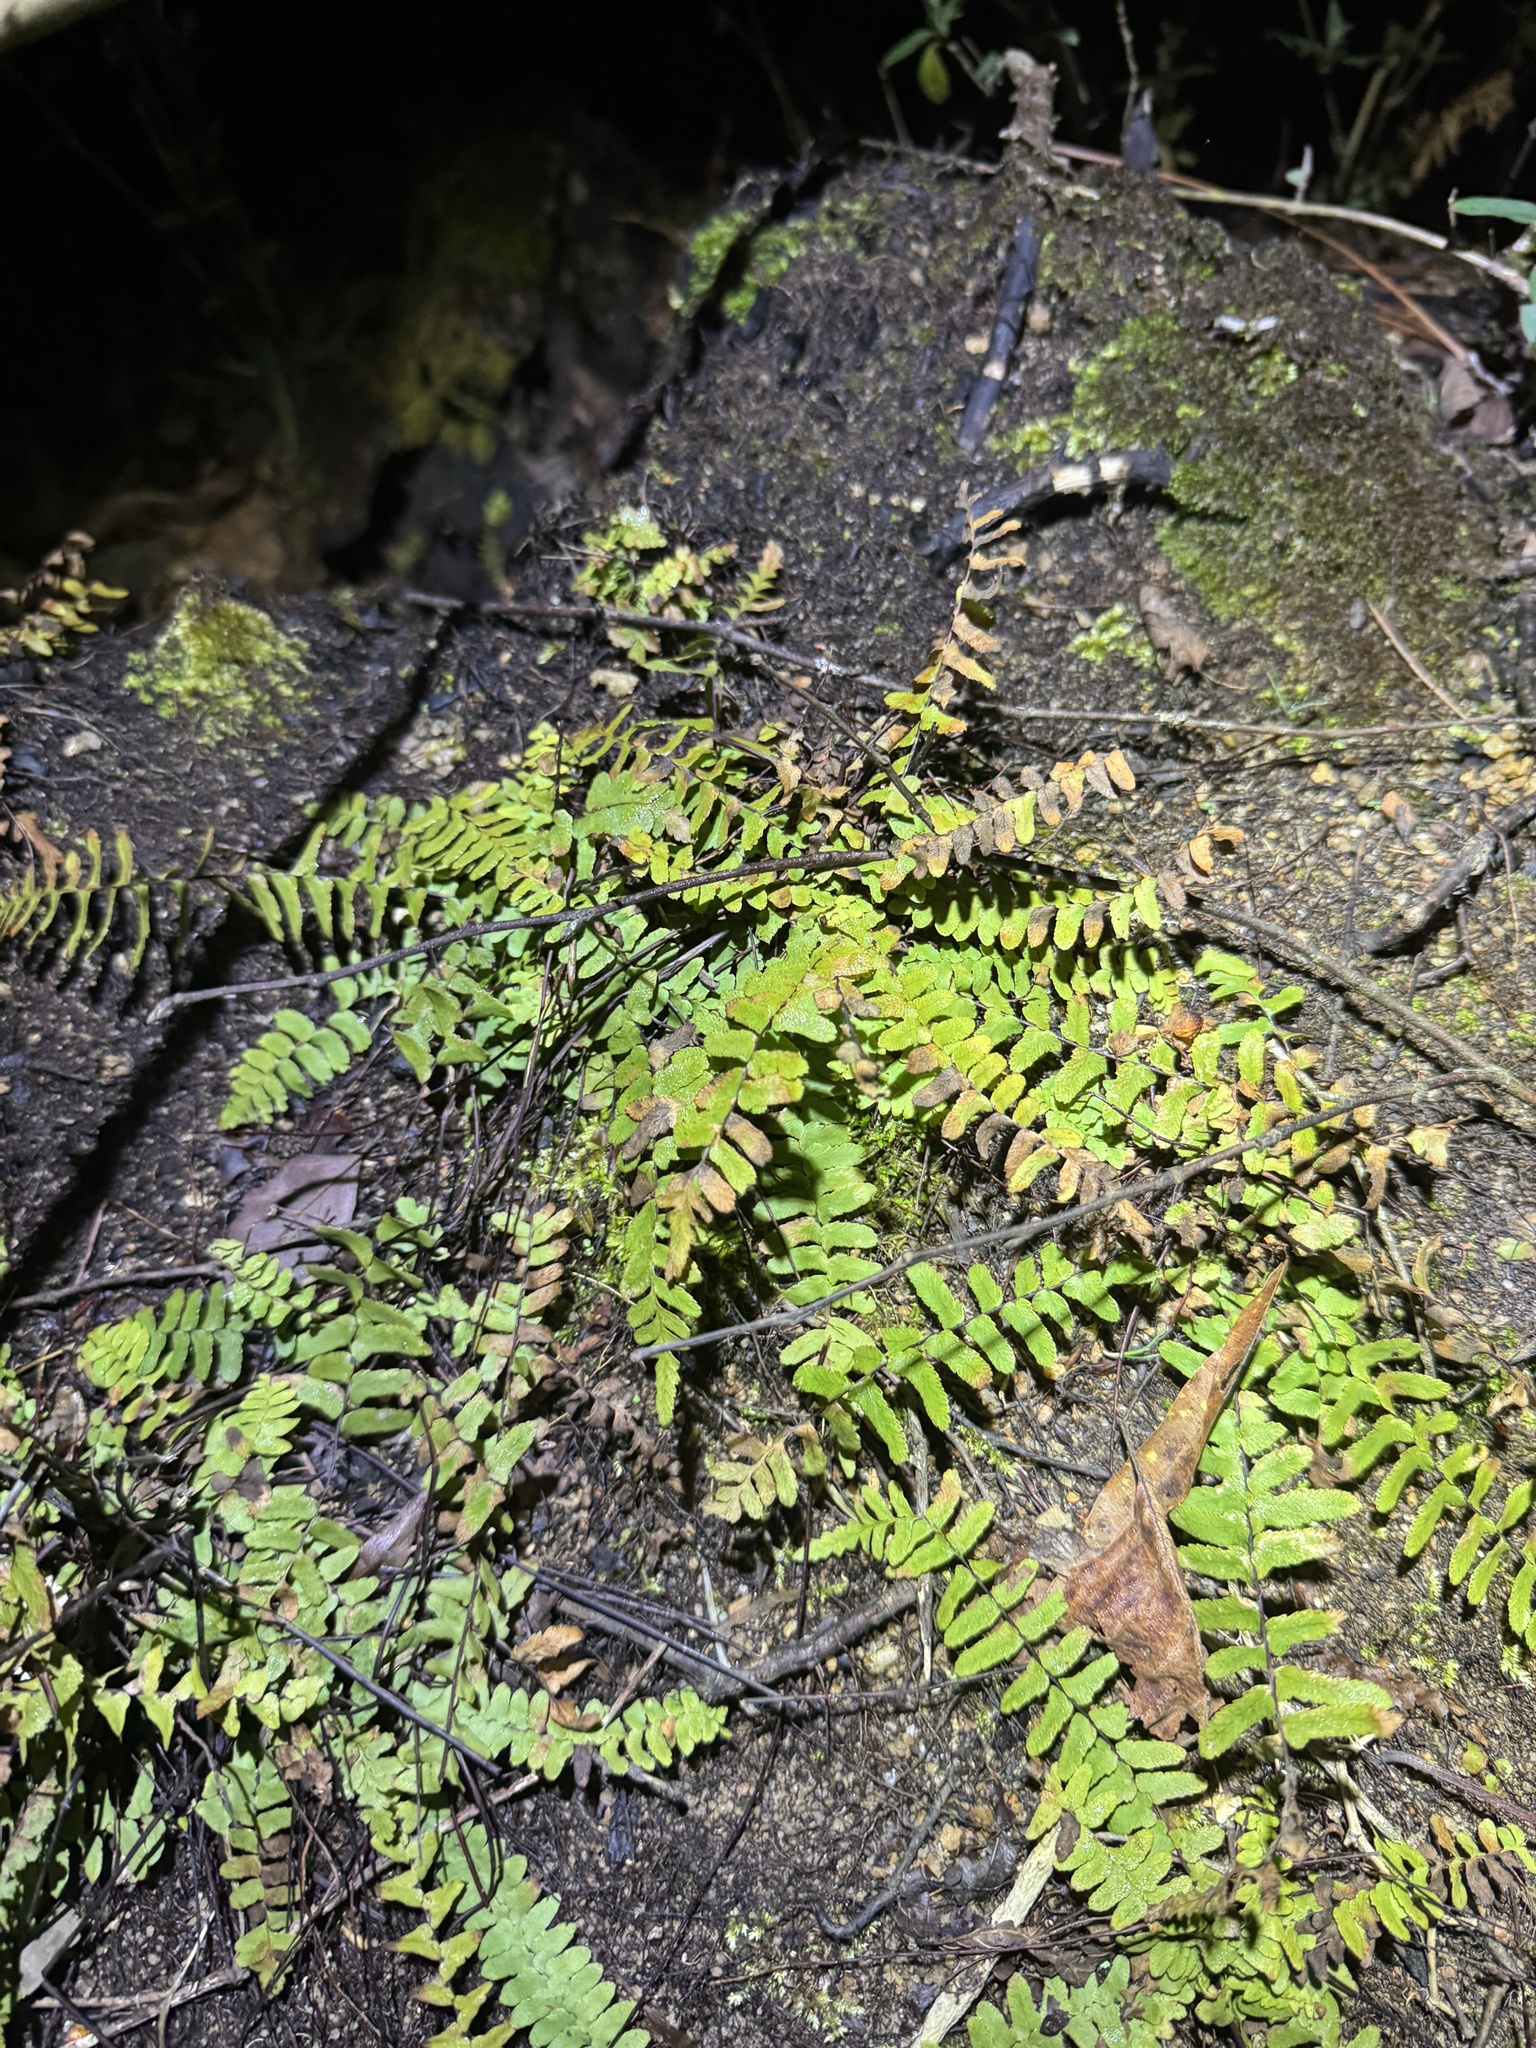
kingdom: Plantae
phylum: Tracheophyta
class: Polypodiopsida
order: Polypodiales
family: Aspleniaceae
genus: Asplenium
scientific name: Asplenium platyneuron
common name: Ebony spleenwort
